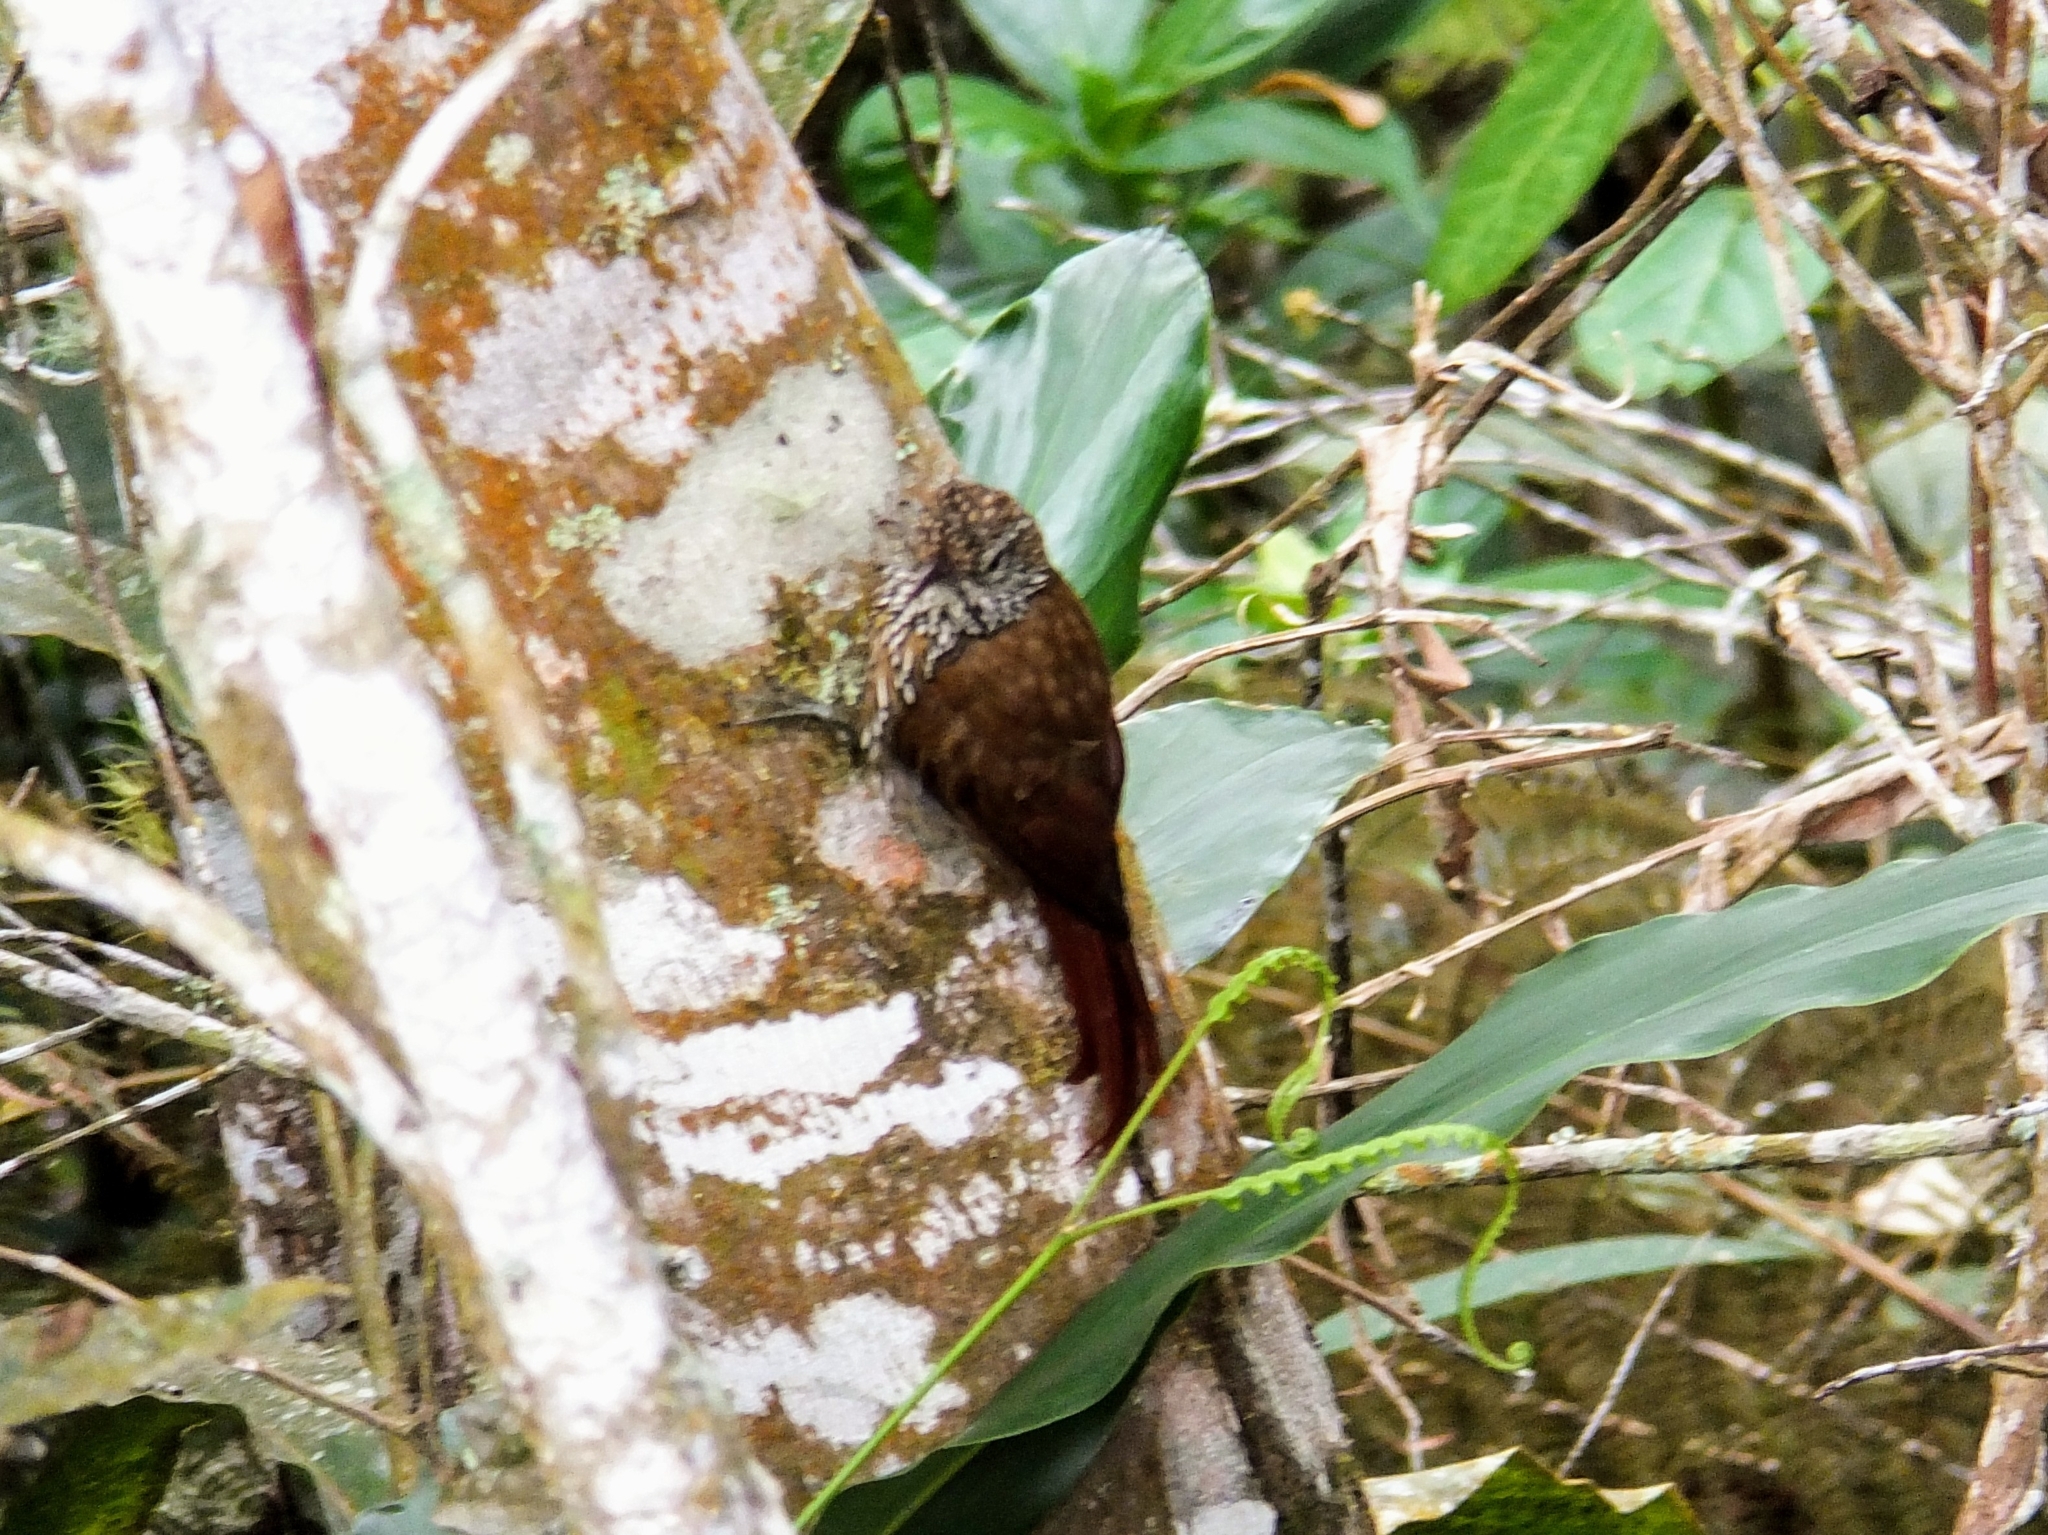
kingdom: Animalia
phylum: Chordata
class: Aves
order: Passeriformes
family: Furnariidae
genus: Lepidocolaptes
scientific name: Lepidocolaptes lacrymiger
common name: Montane woodcreeper
